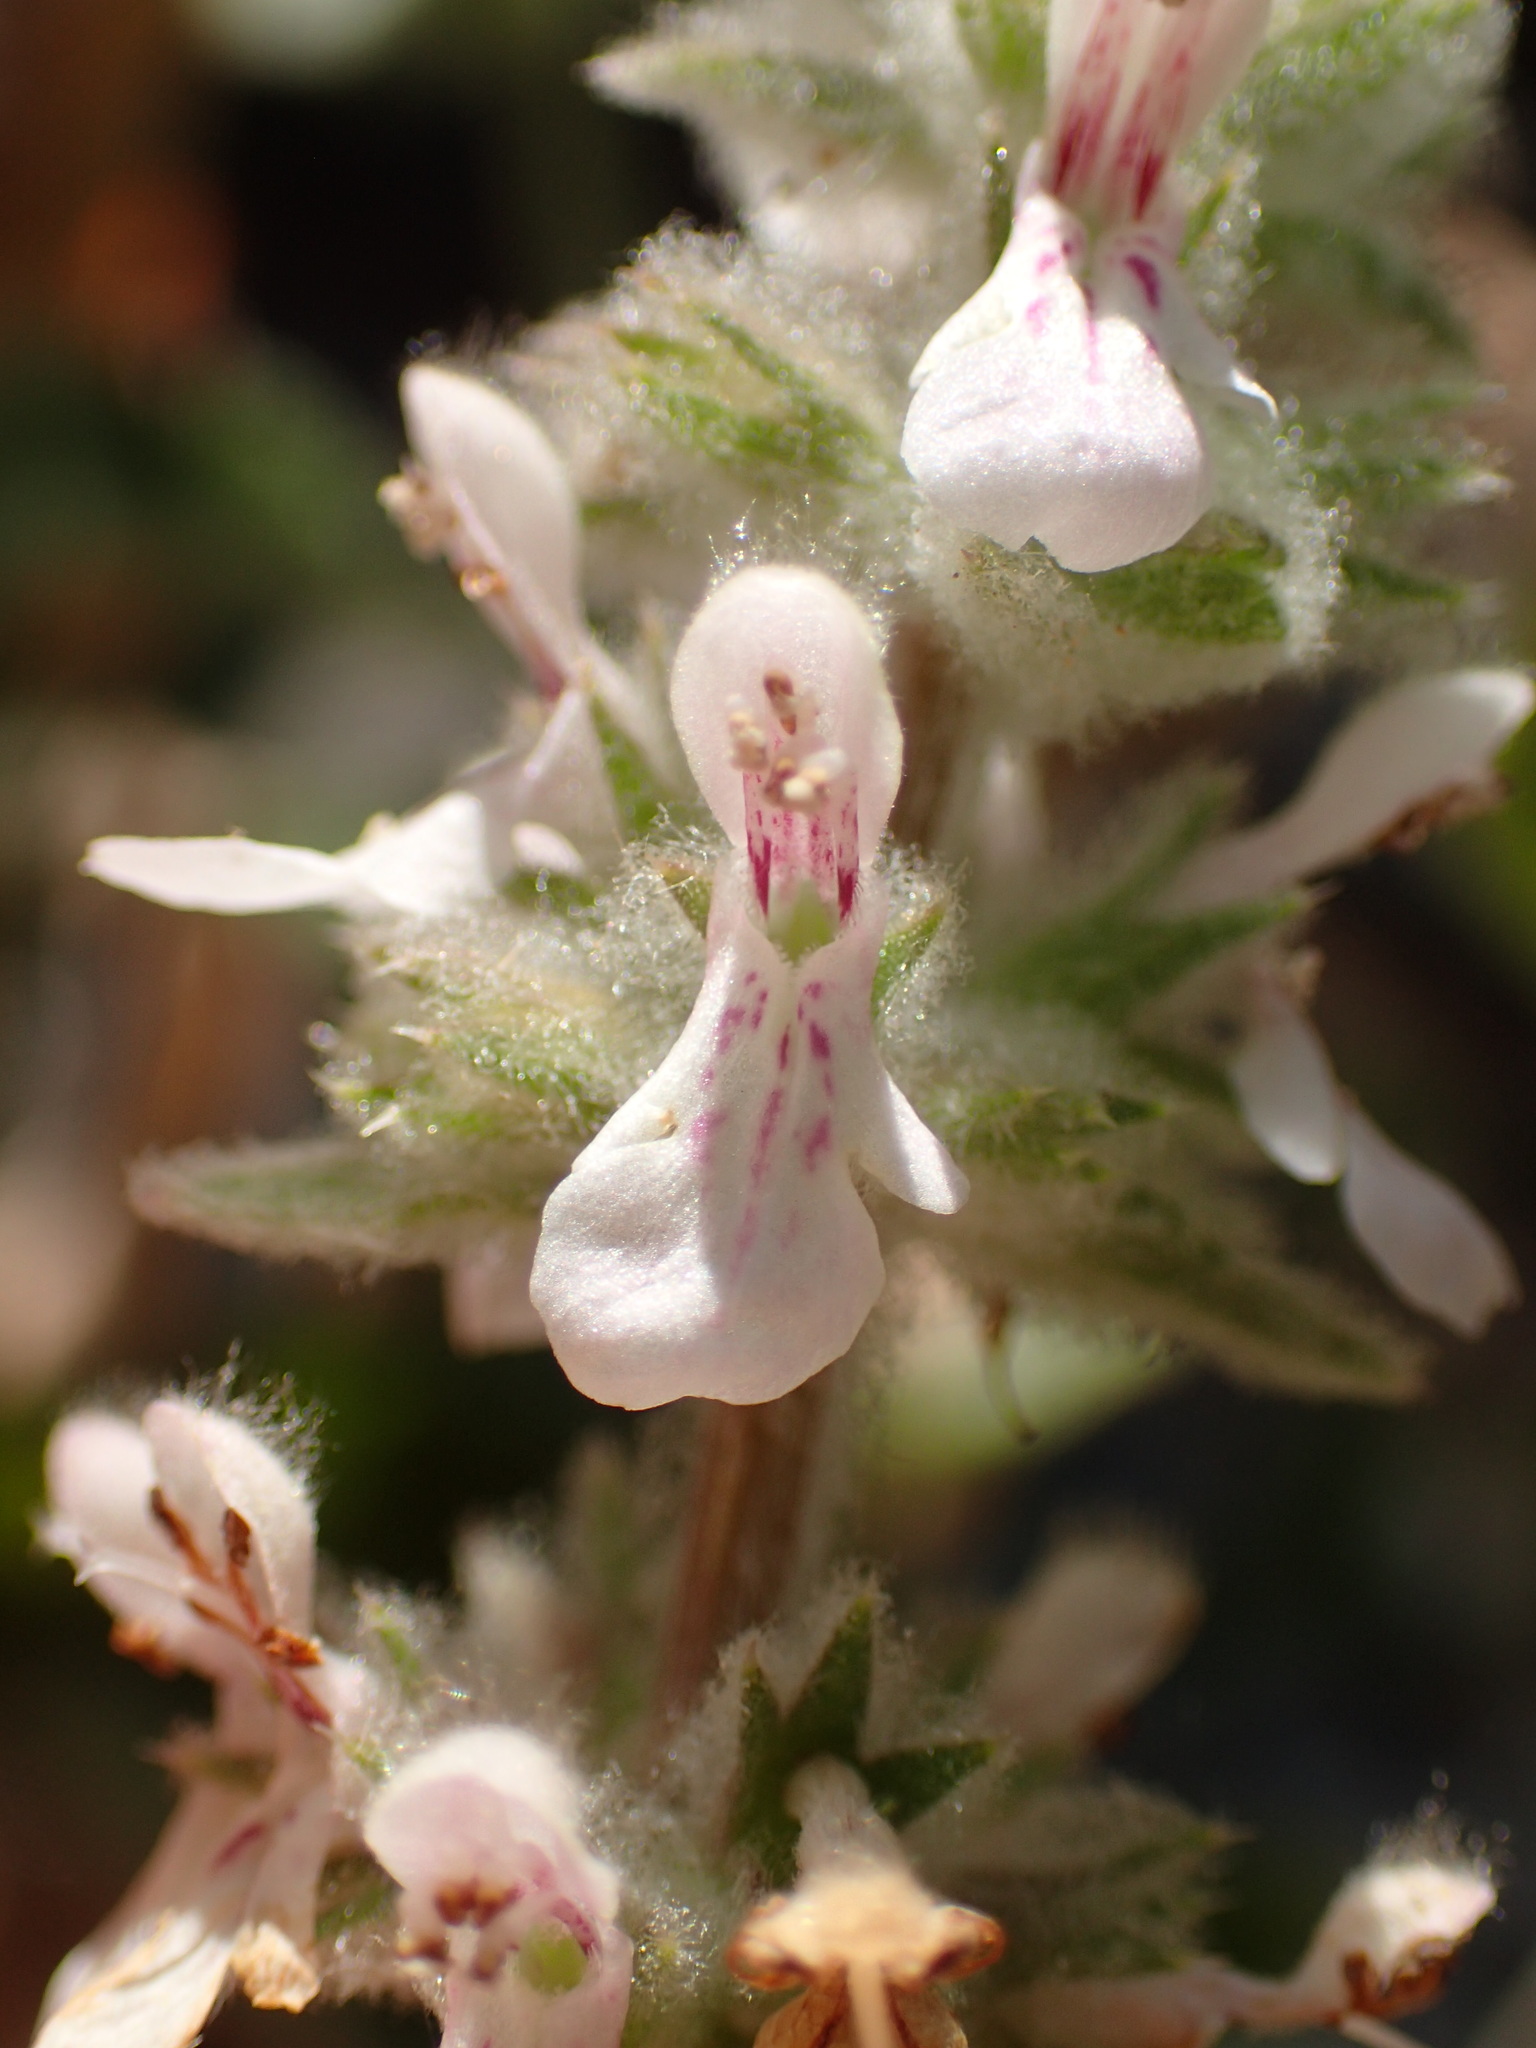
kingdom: Plantae
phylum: Tracheophyta
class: Magnoliopsida
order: Lamiales
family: Lamiaceae
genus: Stachys
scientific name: Stachys albens
